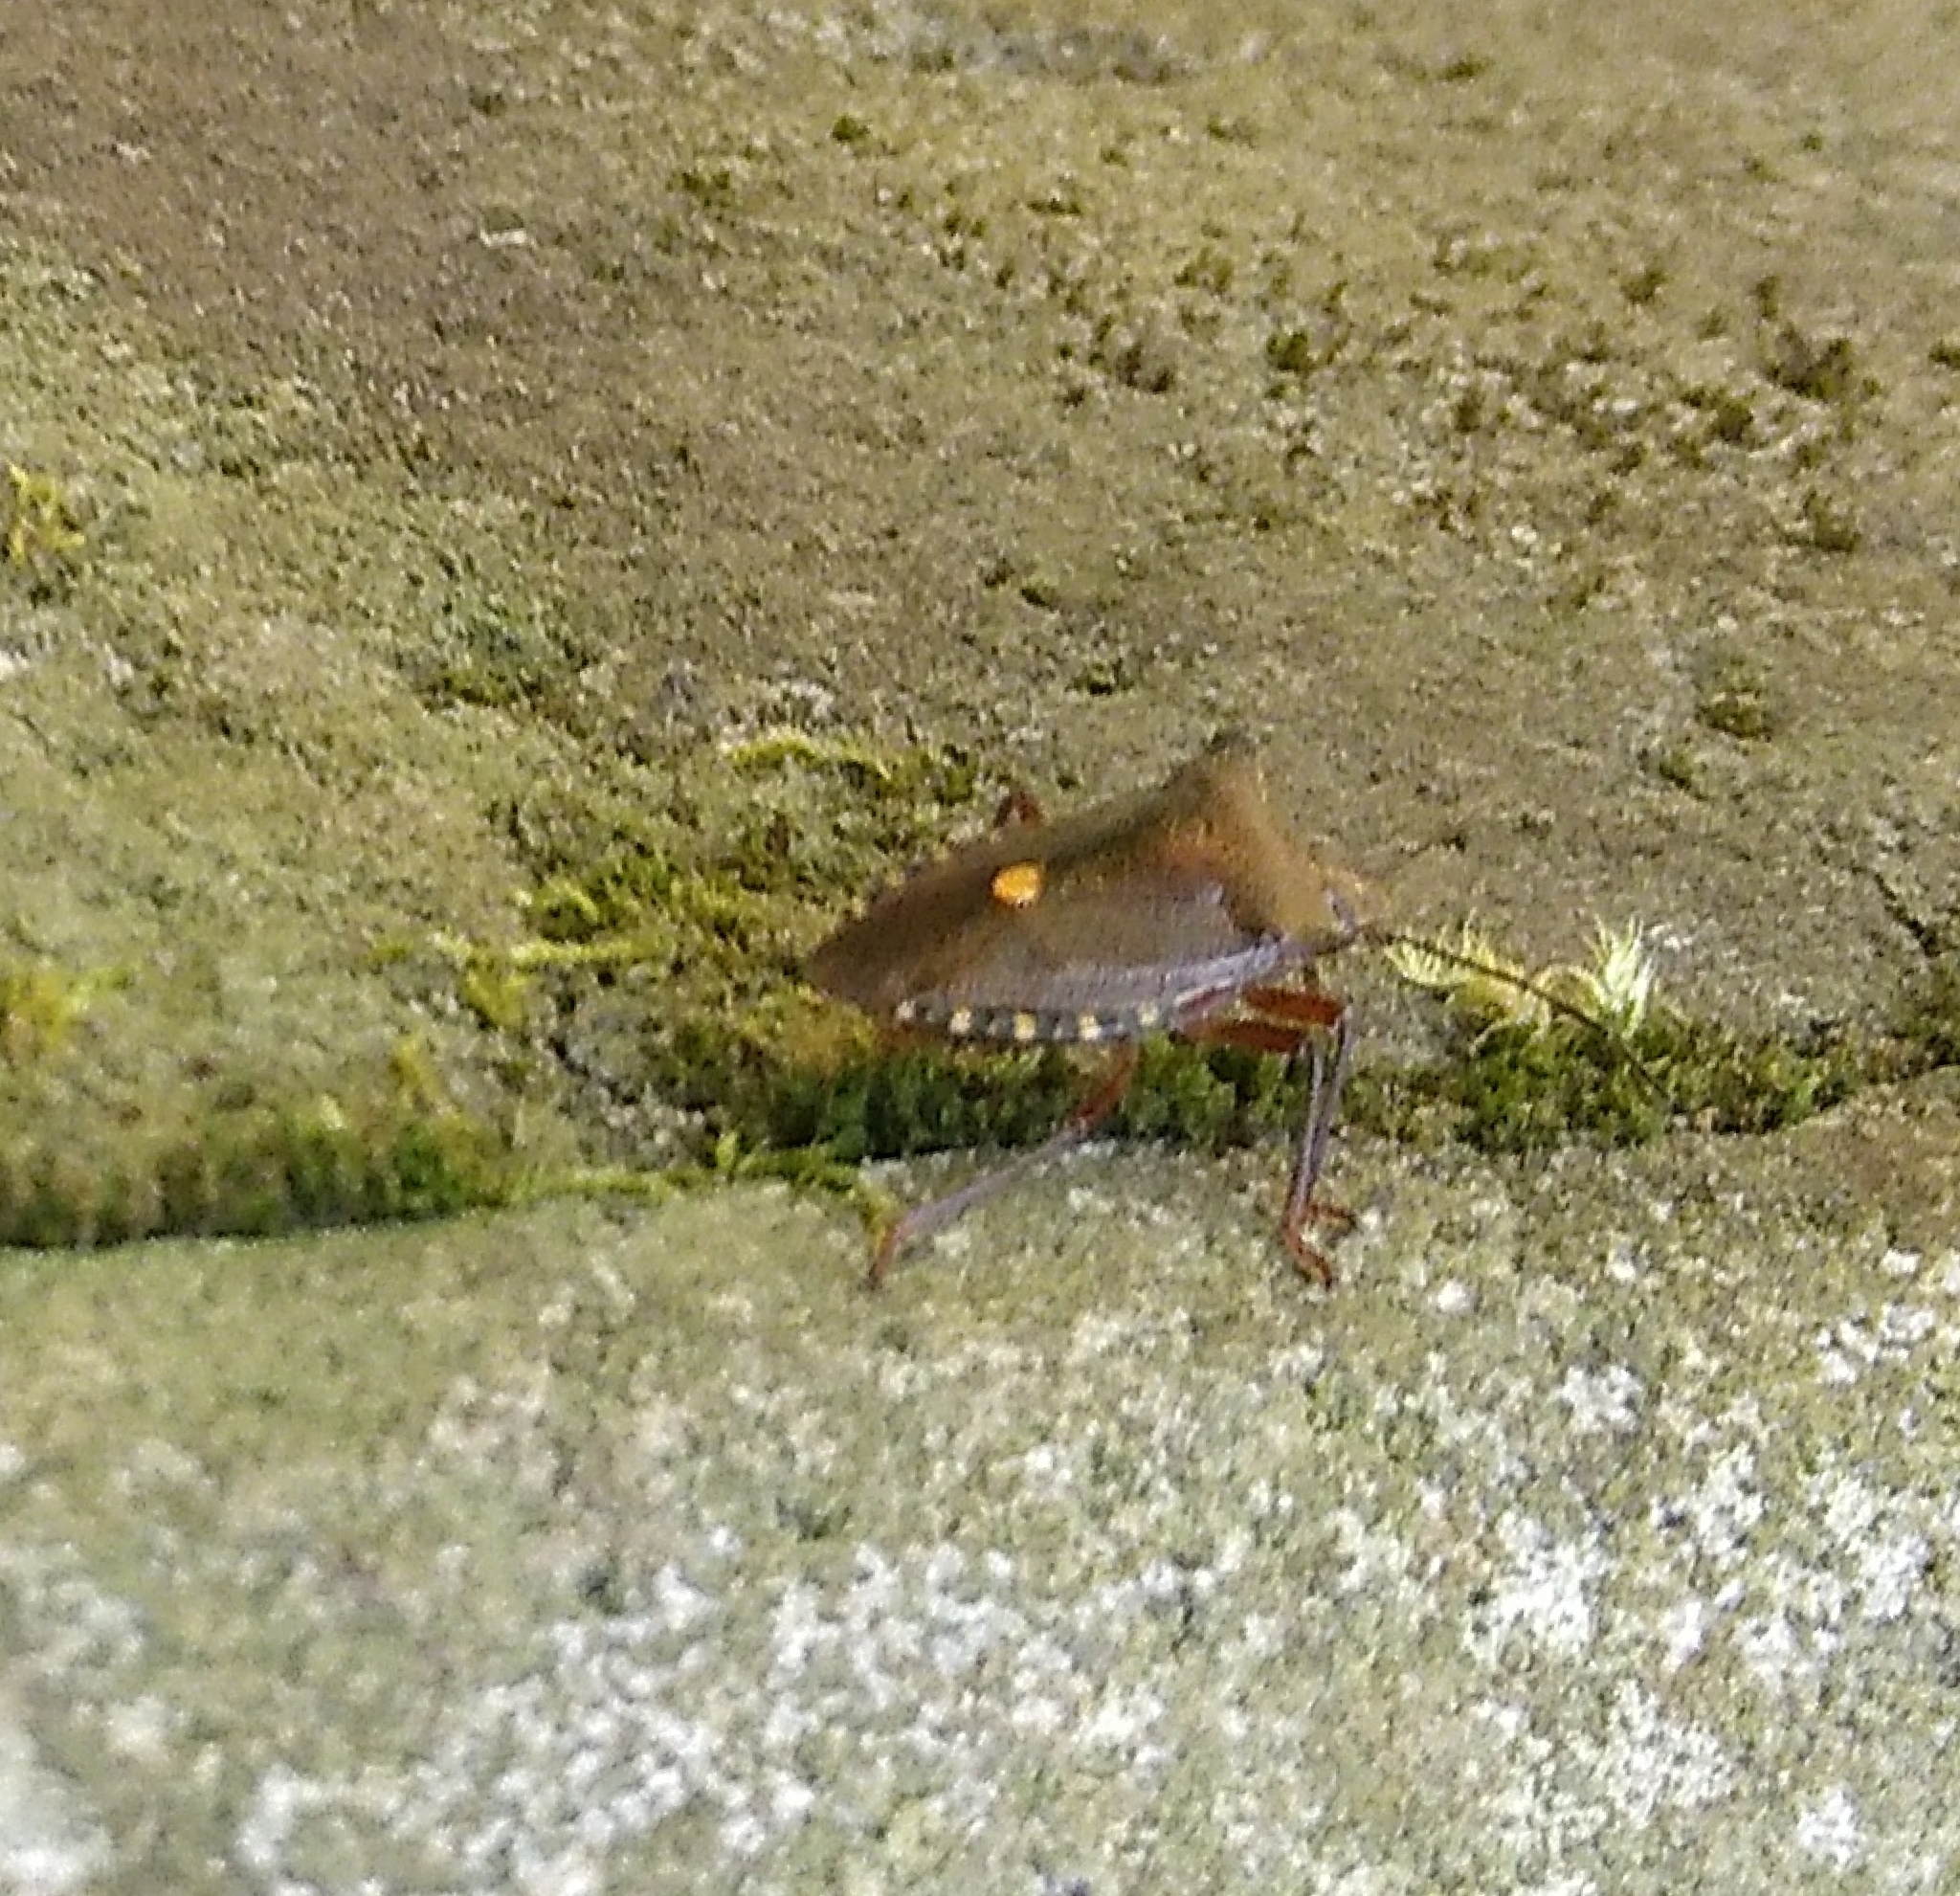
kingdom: Animalia
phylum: Arthropoda
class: Insecta
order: Hemiptera
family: Pentatomidae
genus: Pentatoma
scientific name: Pentatoma rufipes
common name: Forest bug
